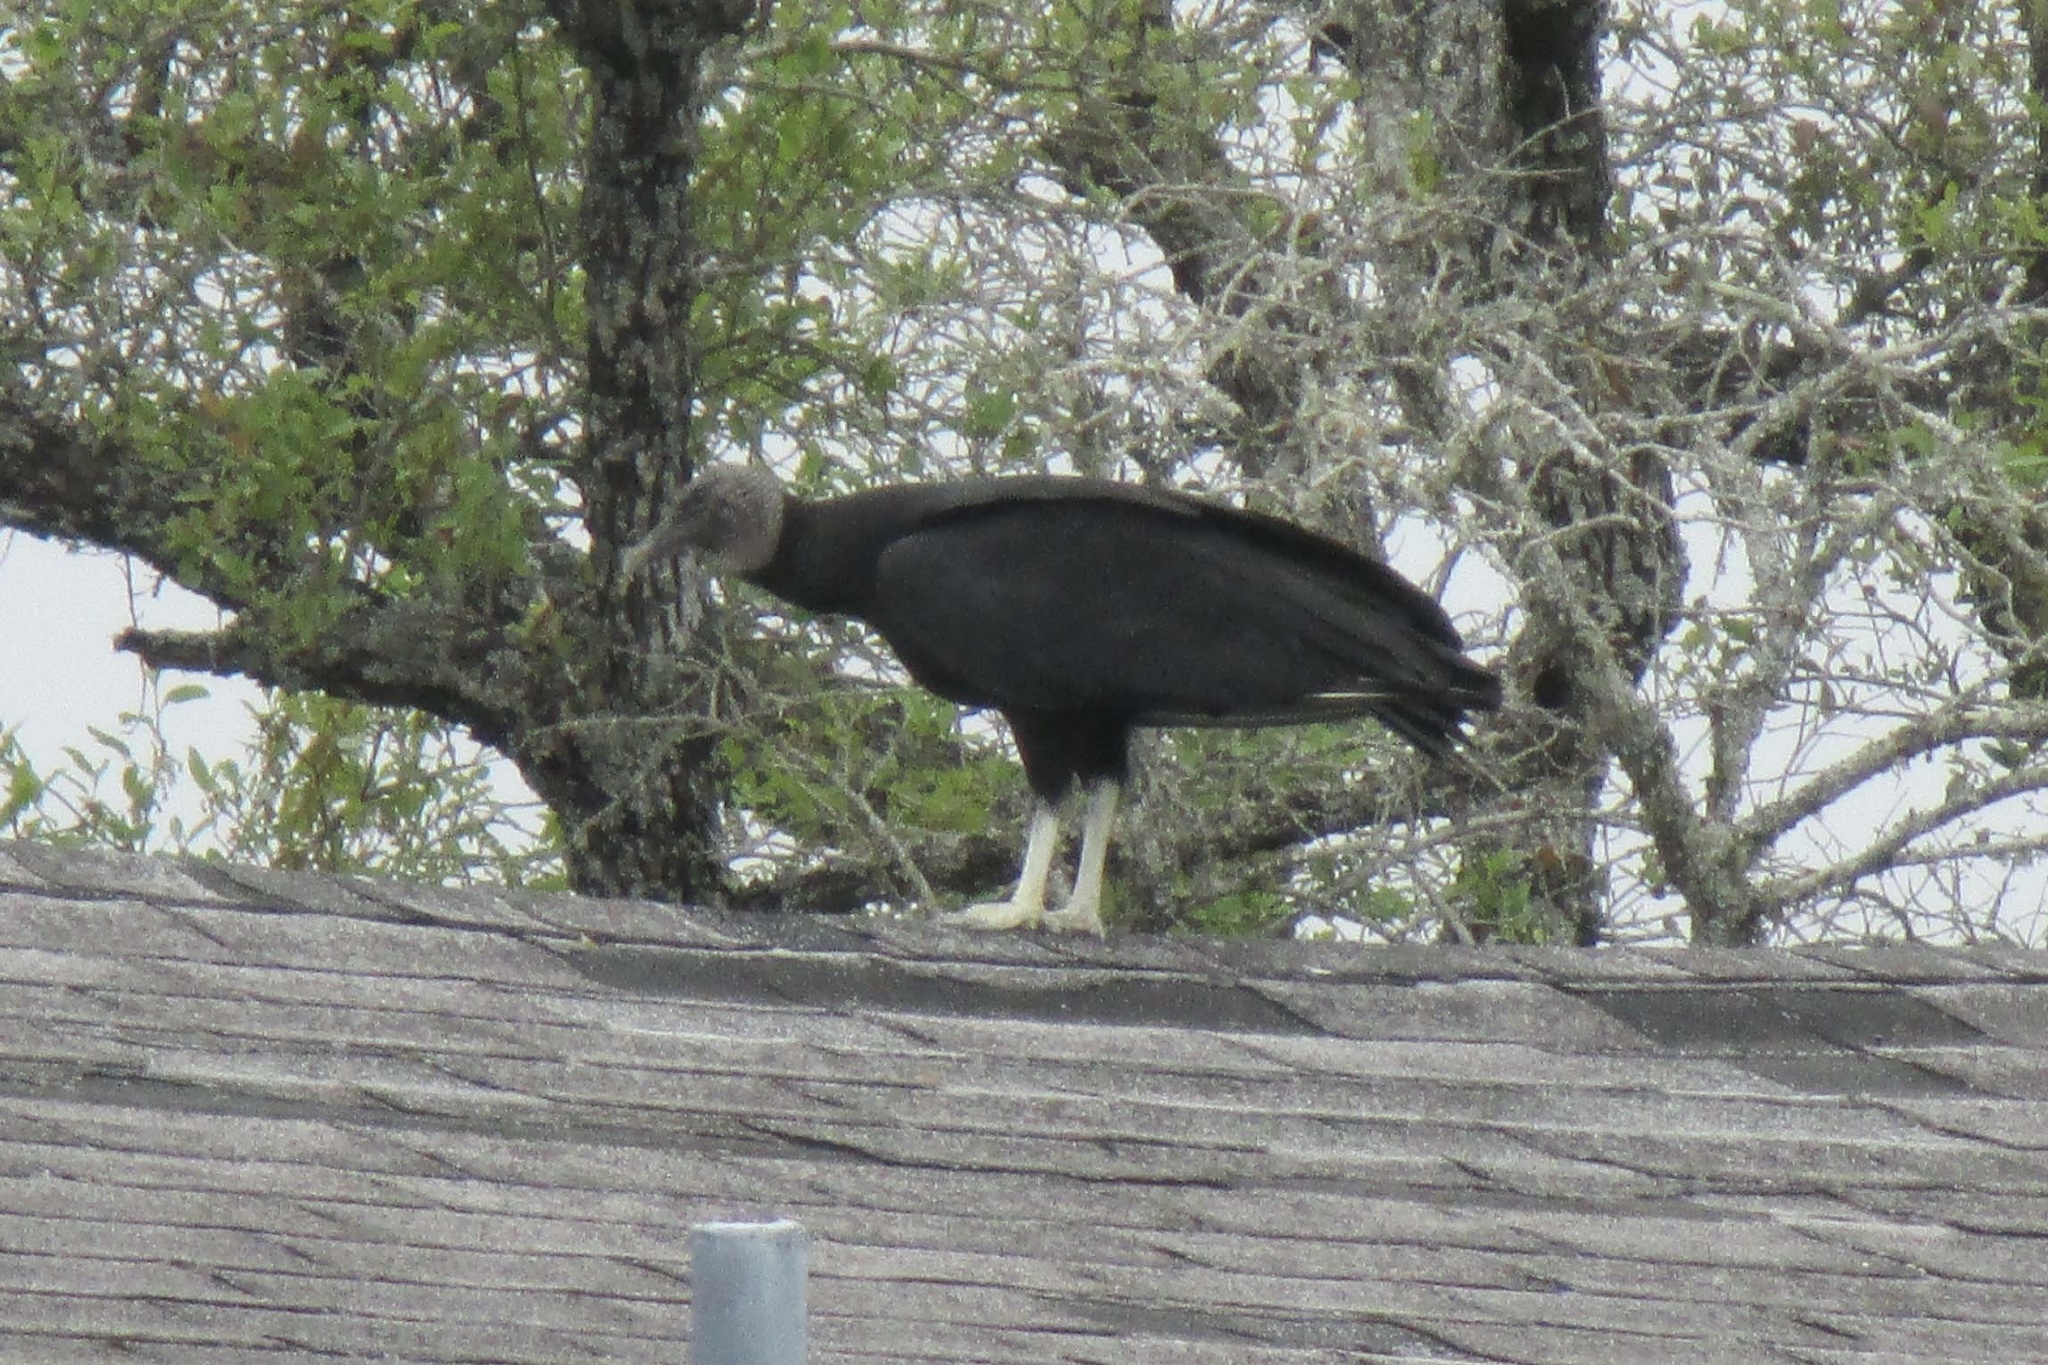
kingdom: Animalia
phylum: Chordata
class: Aves
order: Accipitriformes
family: Cathartidae
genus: Coragyps
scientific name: Coragyps atratus
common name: Black vulture
